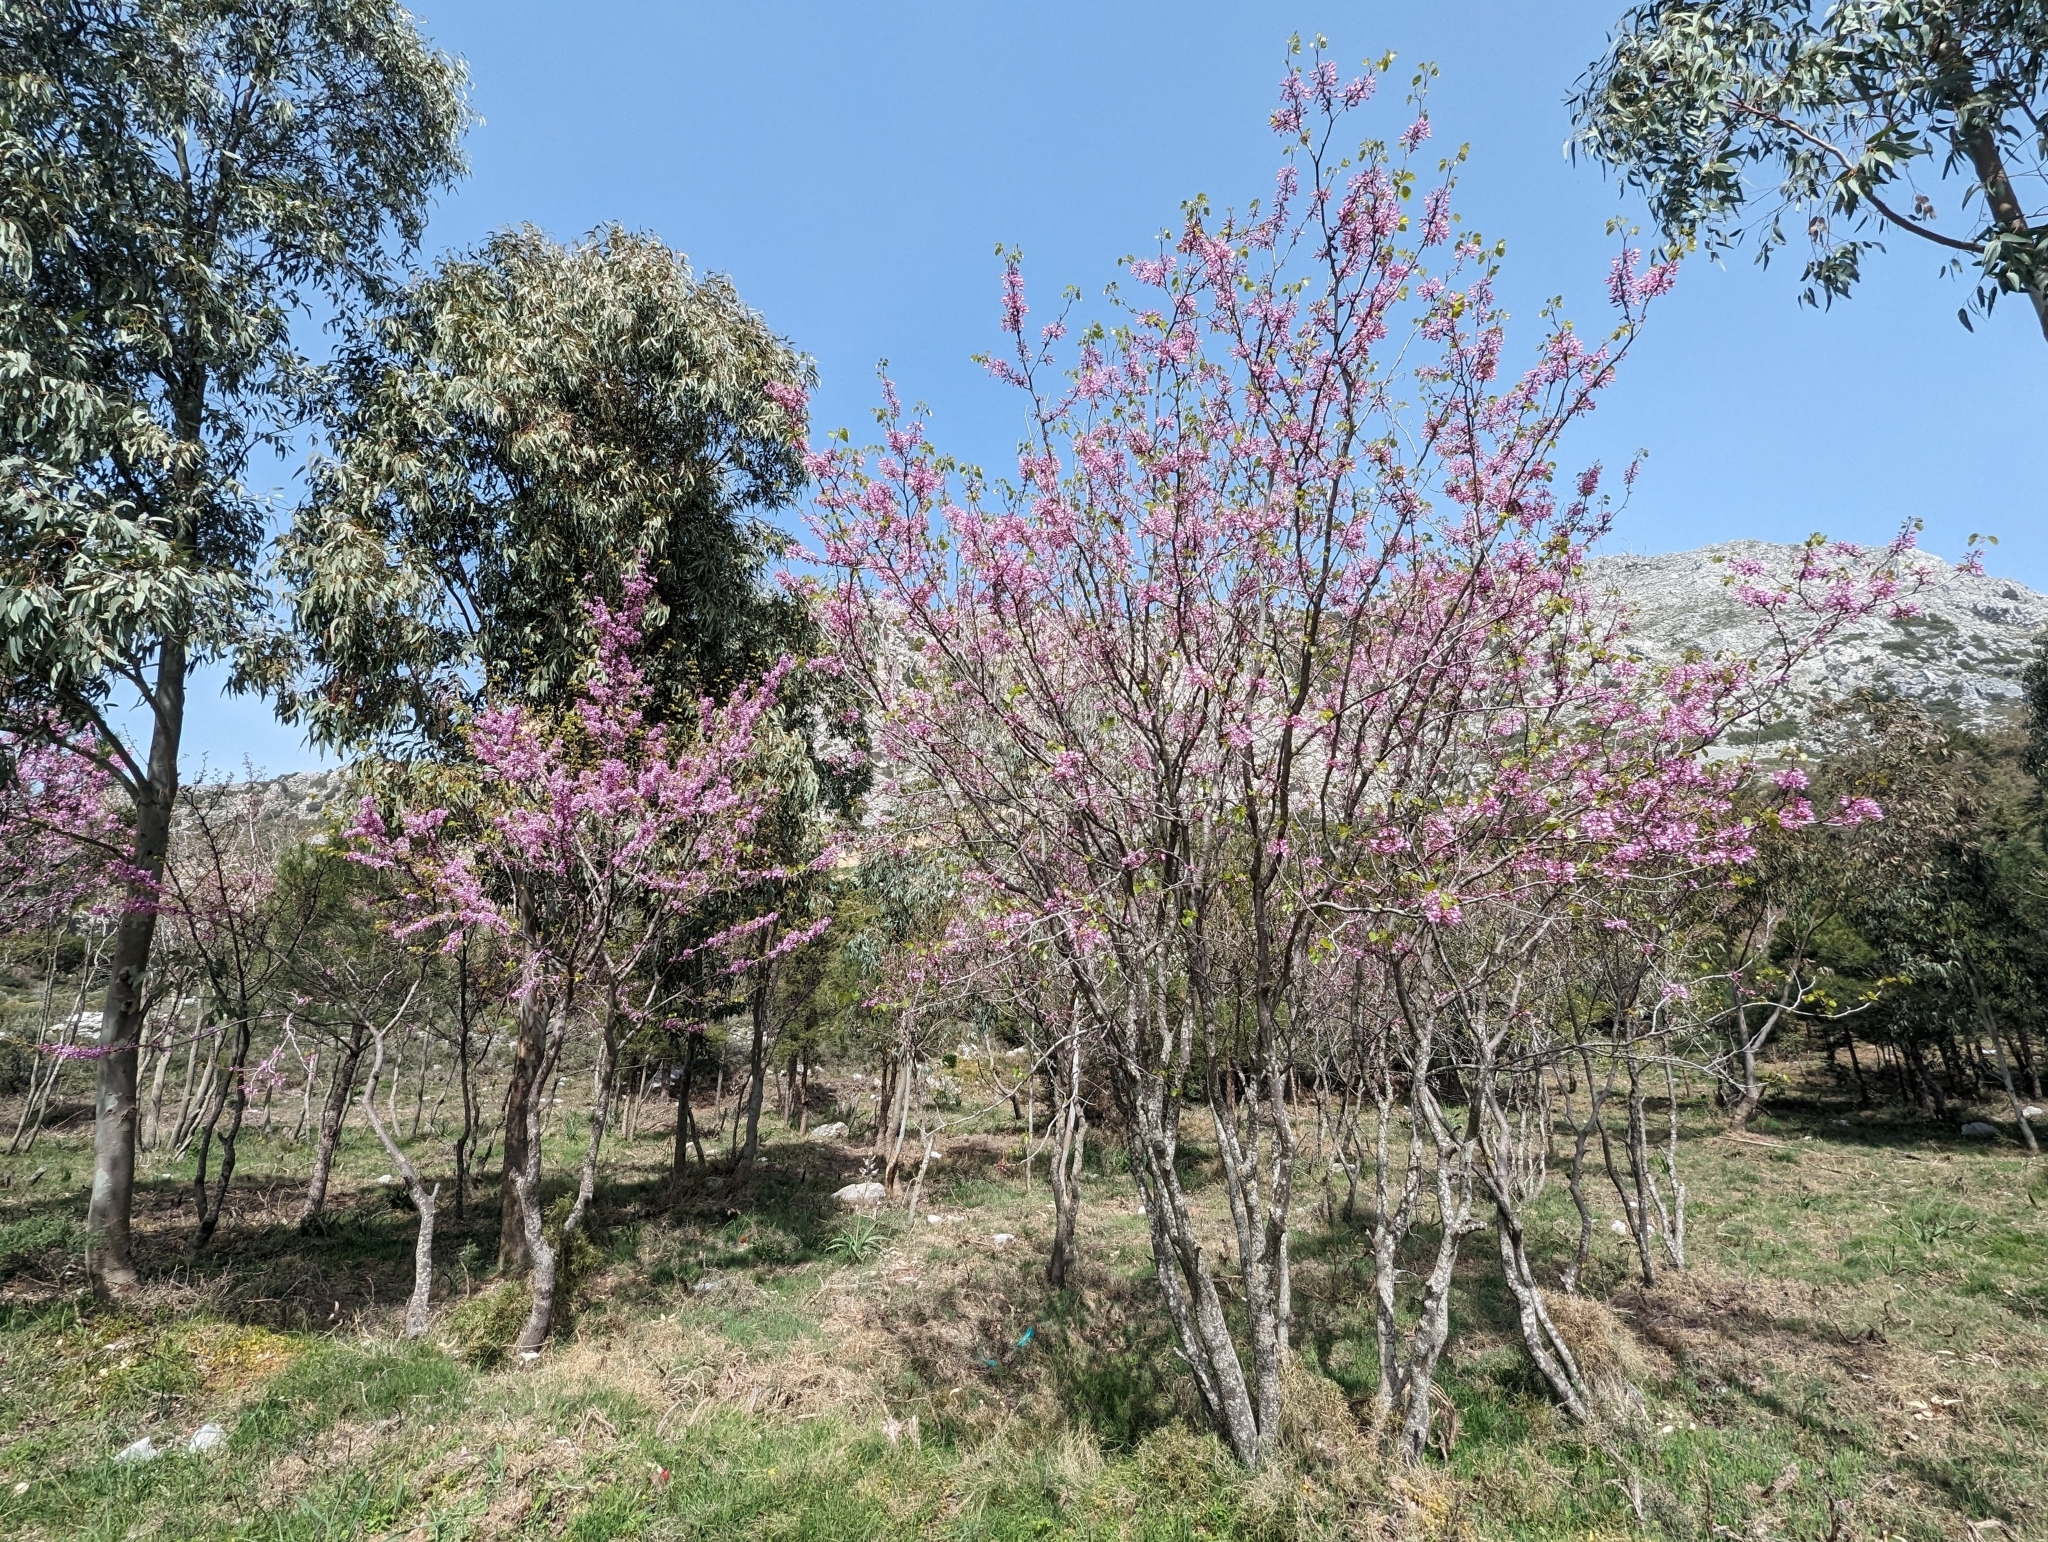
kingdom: Plantae
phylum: Tracheophyta
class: Magnoliopsida
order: Fabales
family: Fabaceae
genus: Cercis
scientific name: Cercis siliquastrum
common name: Judas tree
